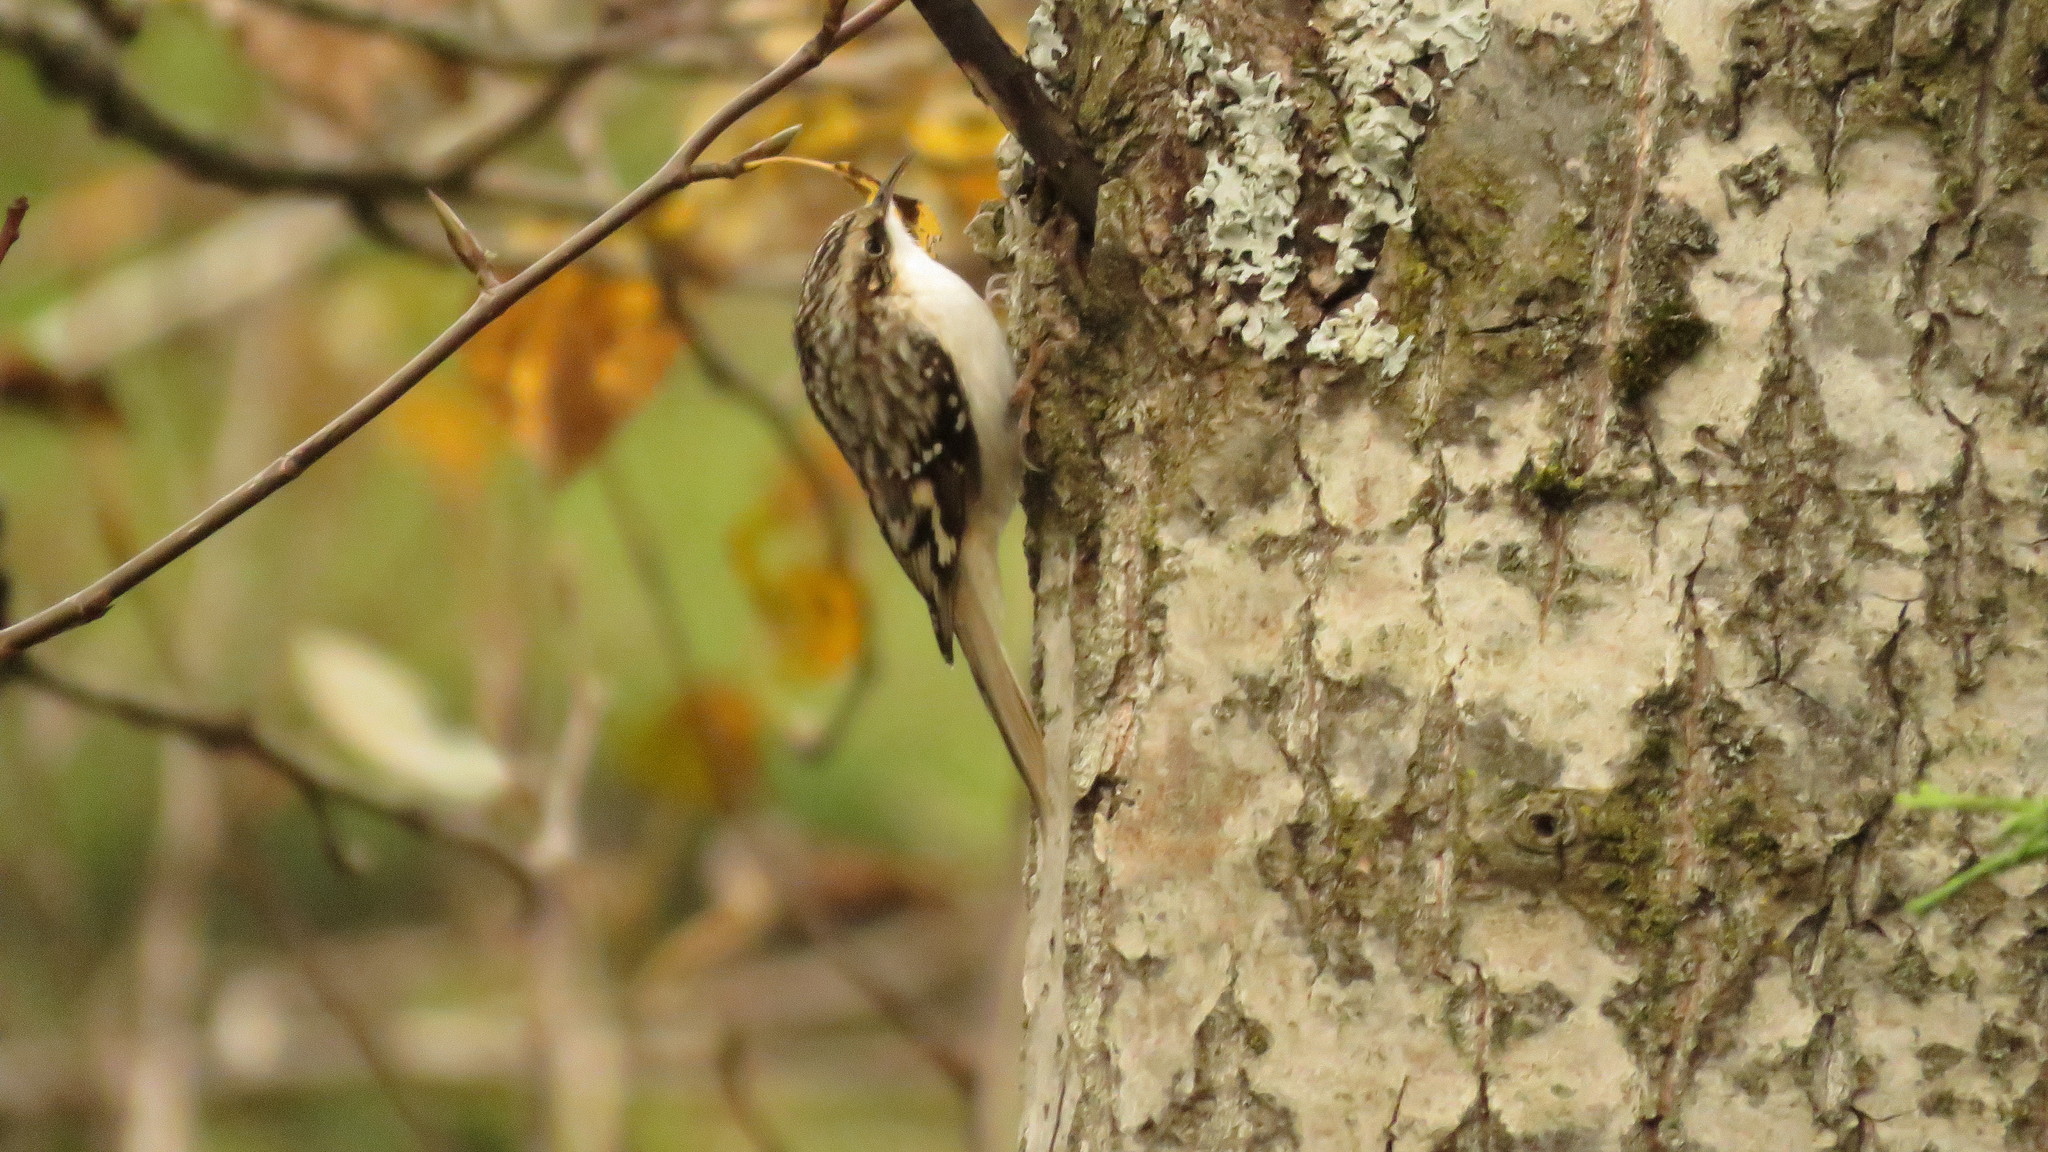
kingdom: Animalia
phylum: Chordata
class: Aves
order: Passeriformes
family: Certhiidae
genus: Certhia
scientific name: Certhia americana
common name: Brown creeper
